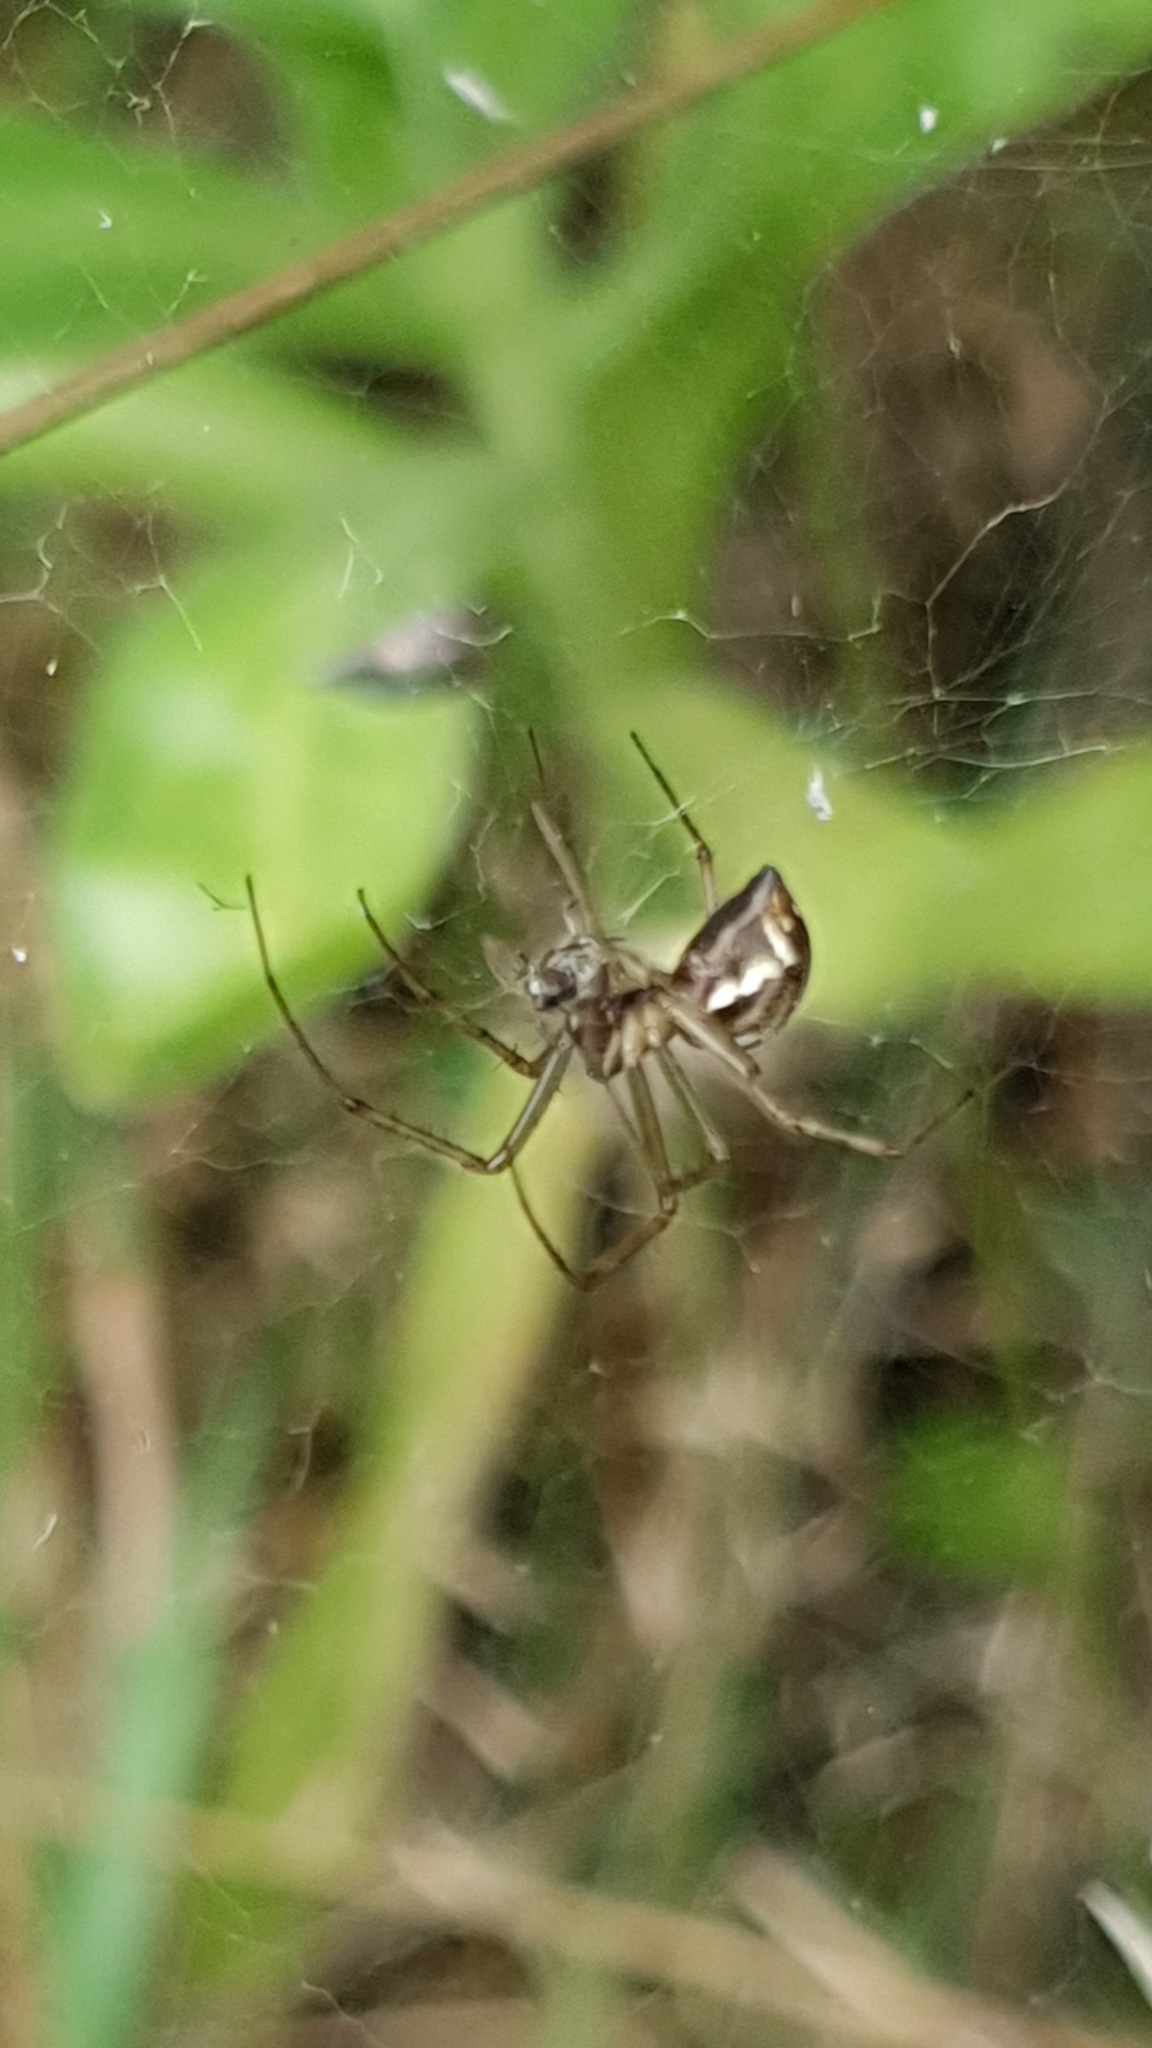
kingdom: Animalia
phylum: Arthropoda
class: Arachnida
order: Araneae
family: Linyphiidae
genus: Linyphia
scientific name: Linyphia triangularis
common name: Money spider
